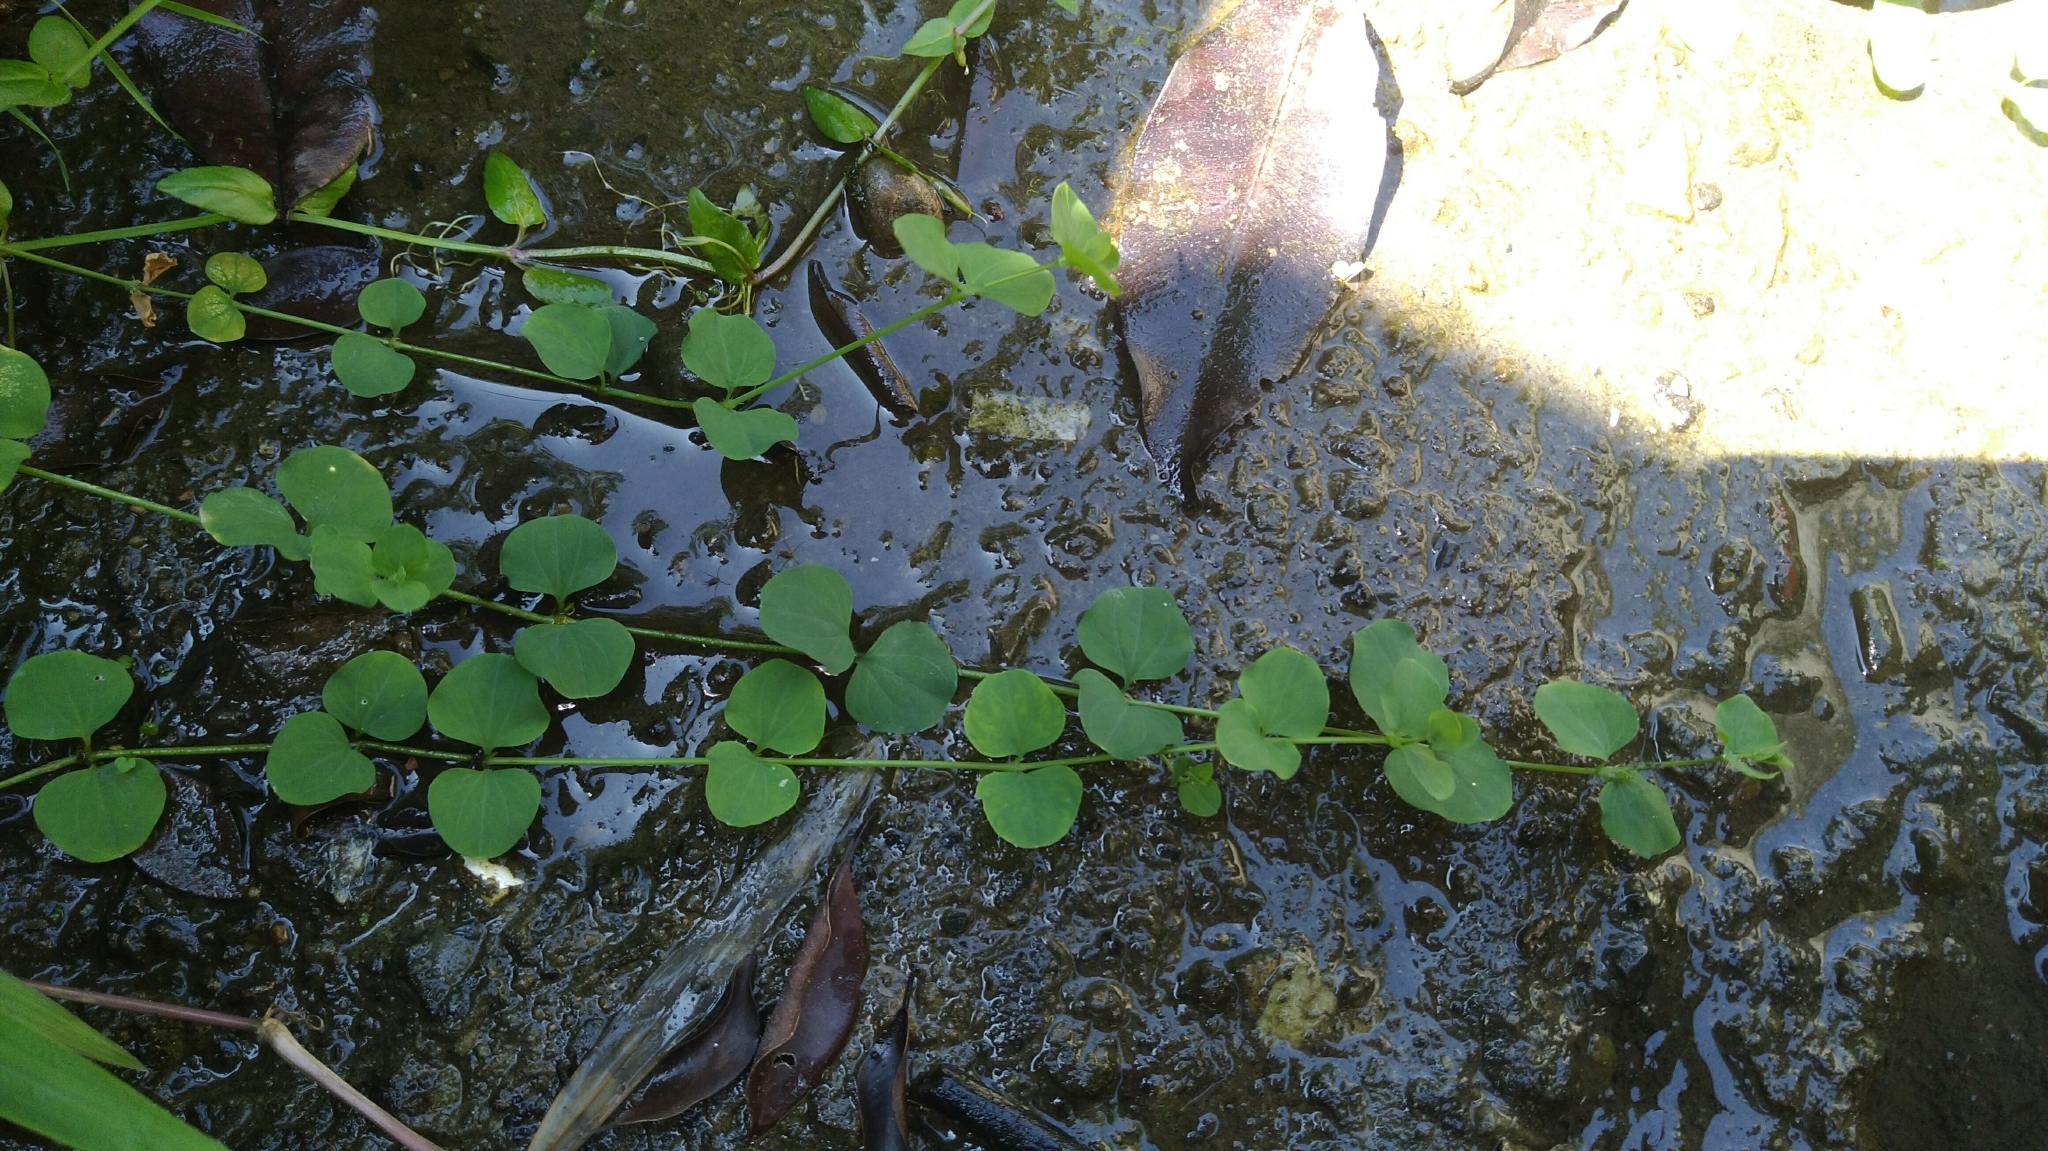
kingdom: Plantae
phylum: Tracheophyta
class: Magnoliopsida
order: Caryophyllales
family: Caryophyllaceae
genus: Drymaria
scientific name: Drymaria cordata
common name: Whitesnow
